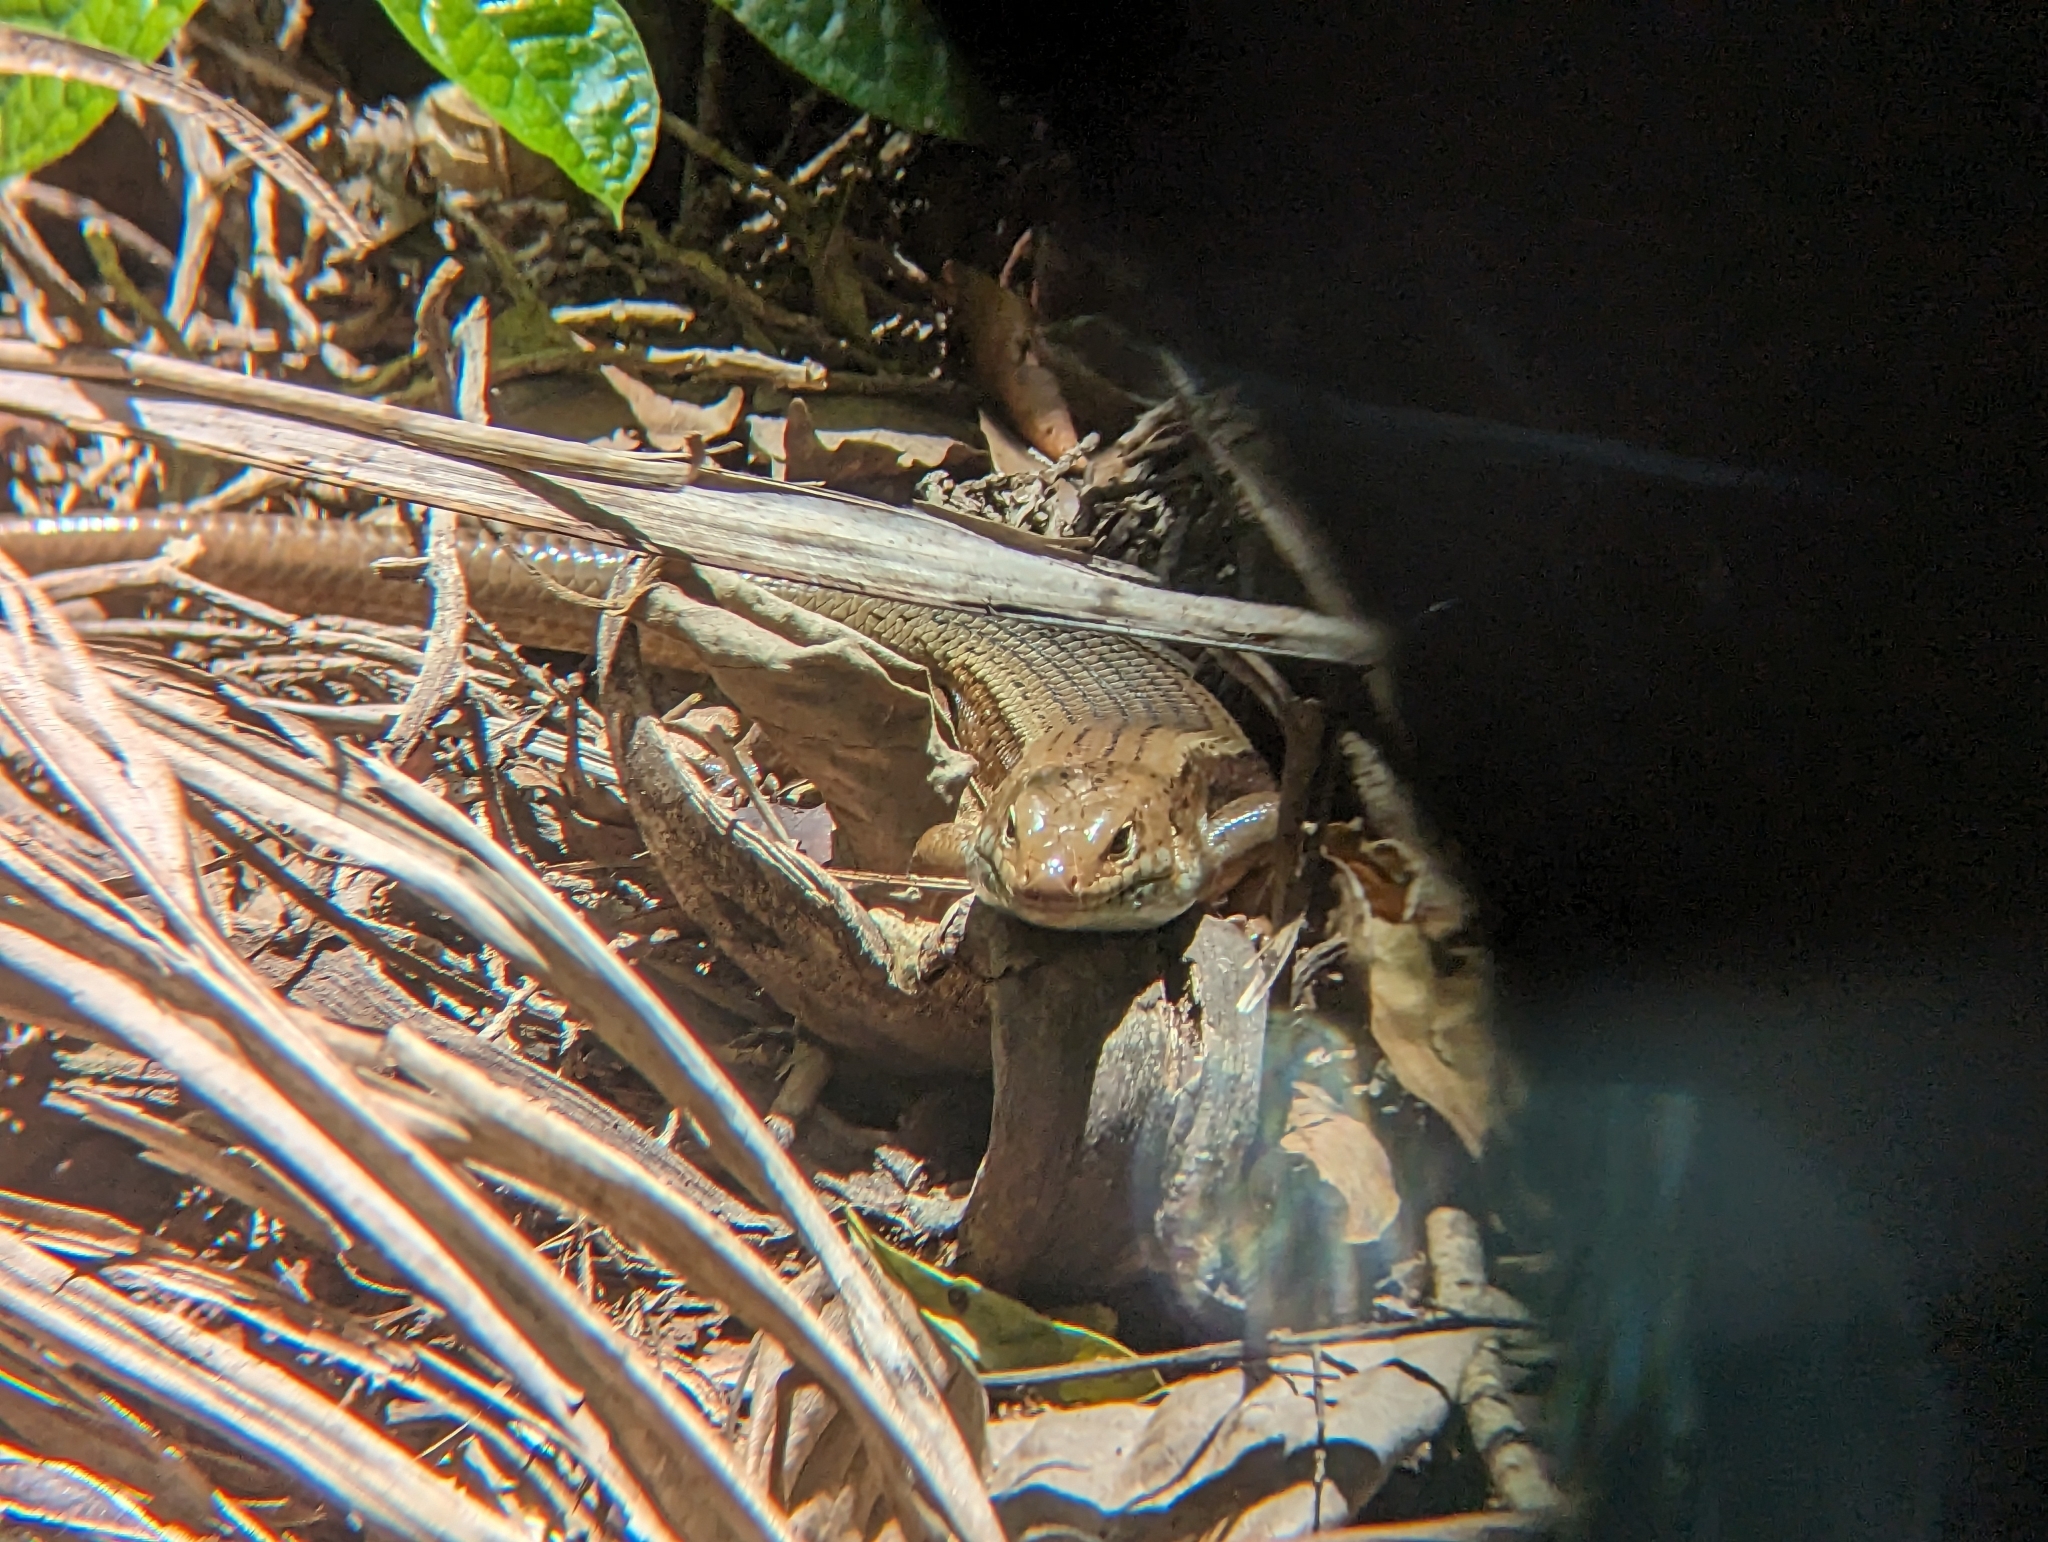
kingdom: Animalia
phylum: Chordata
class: Squamata
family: Scincidae
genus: Bellatorias
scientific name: Bellatorias frerei
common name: Major skink
